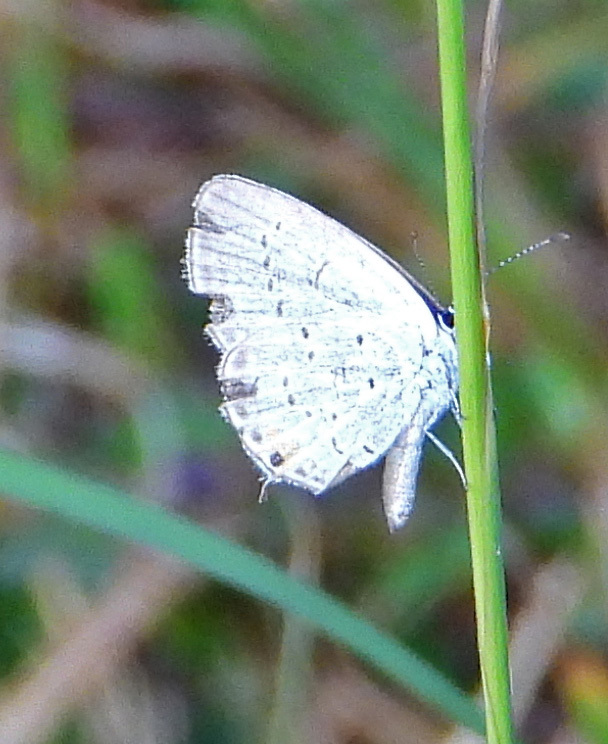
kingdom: Animalia
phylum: Arthropoda
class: Insecta
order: Lepidoptera
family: Lycaenidae
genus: Elkalyce
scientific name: Elkalyce comyntas
